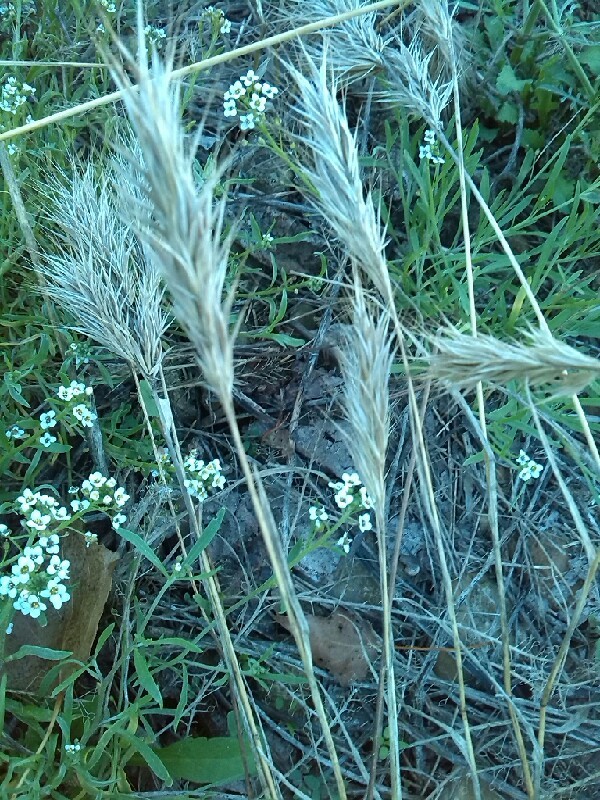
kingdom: Plantae
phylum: Tracheophyta
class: Liliopsida
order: Poales
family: Poaceae
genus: Dactylis
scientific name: Dactylis glomerata
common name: Orchardgrass
